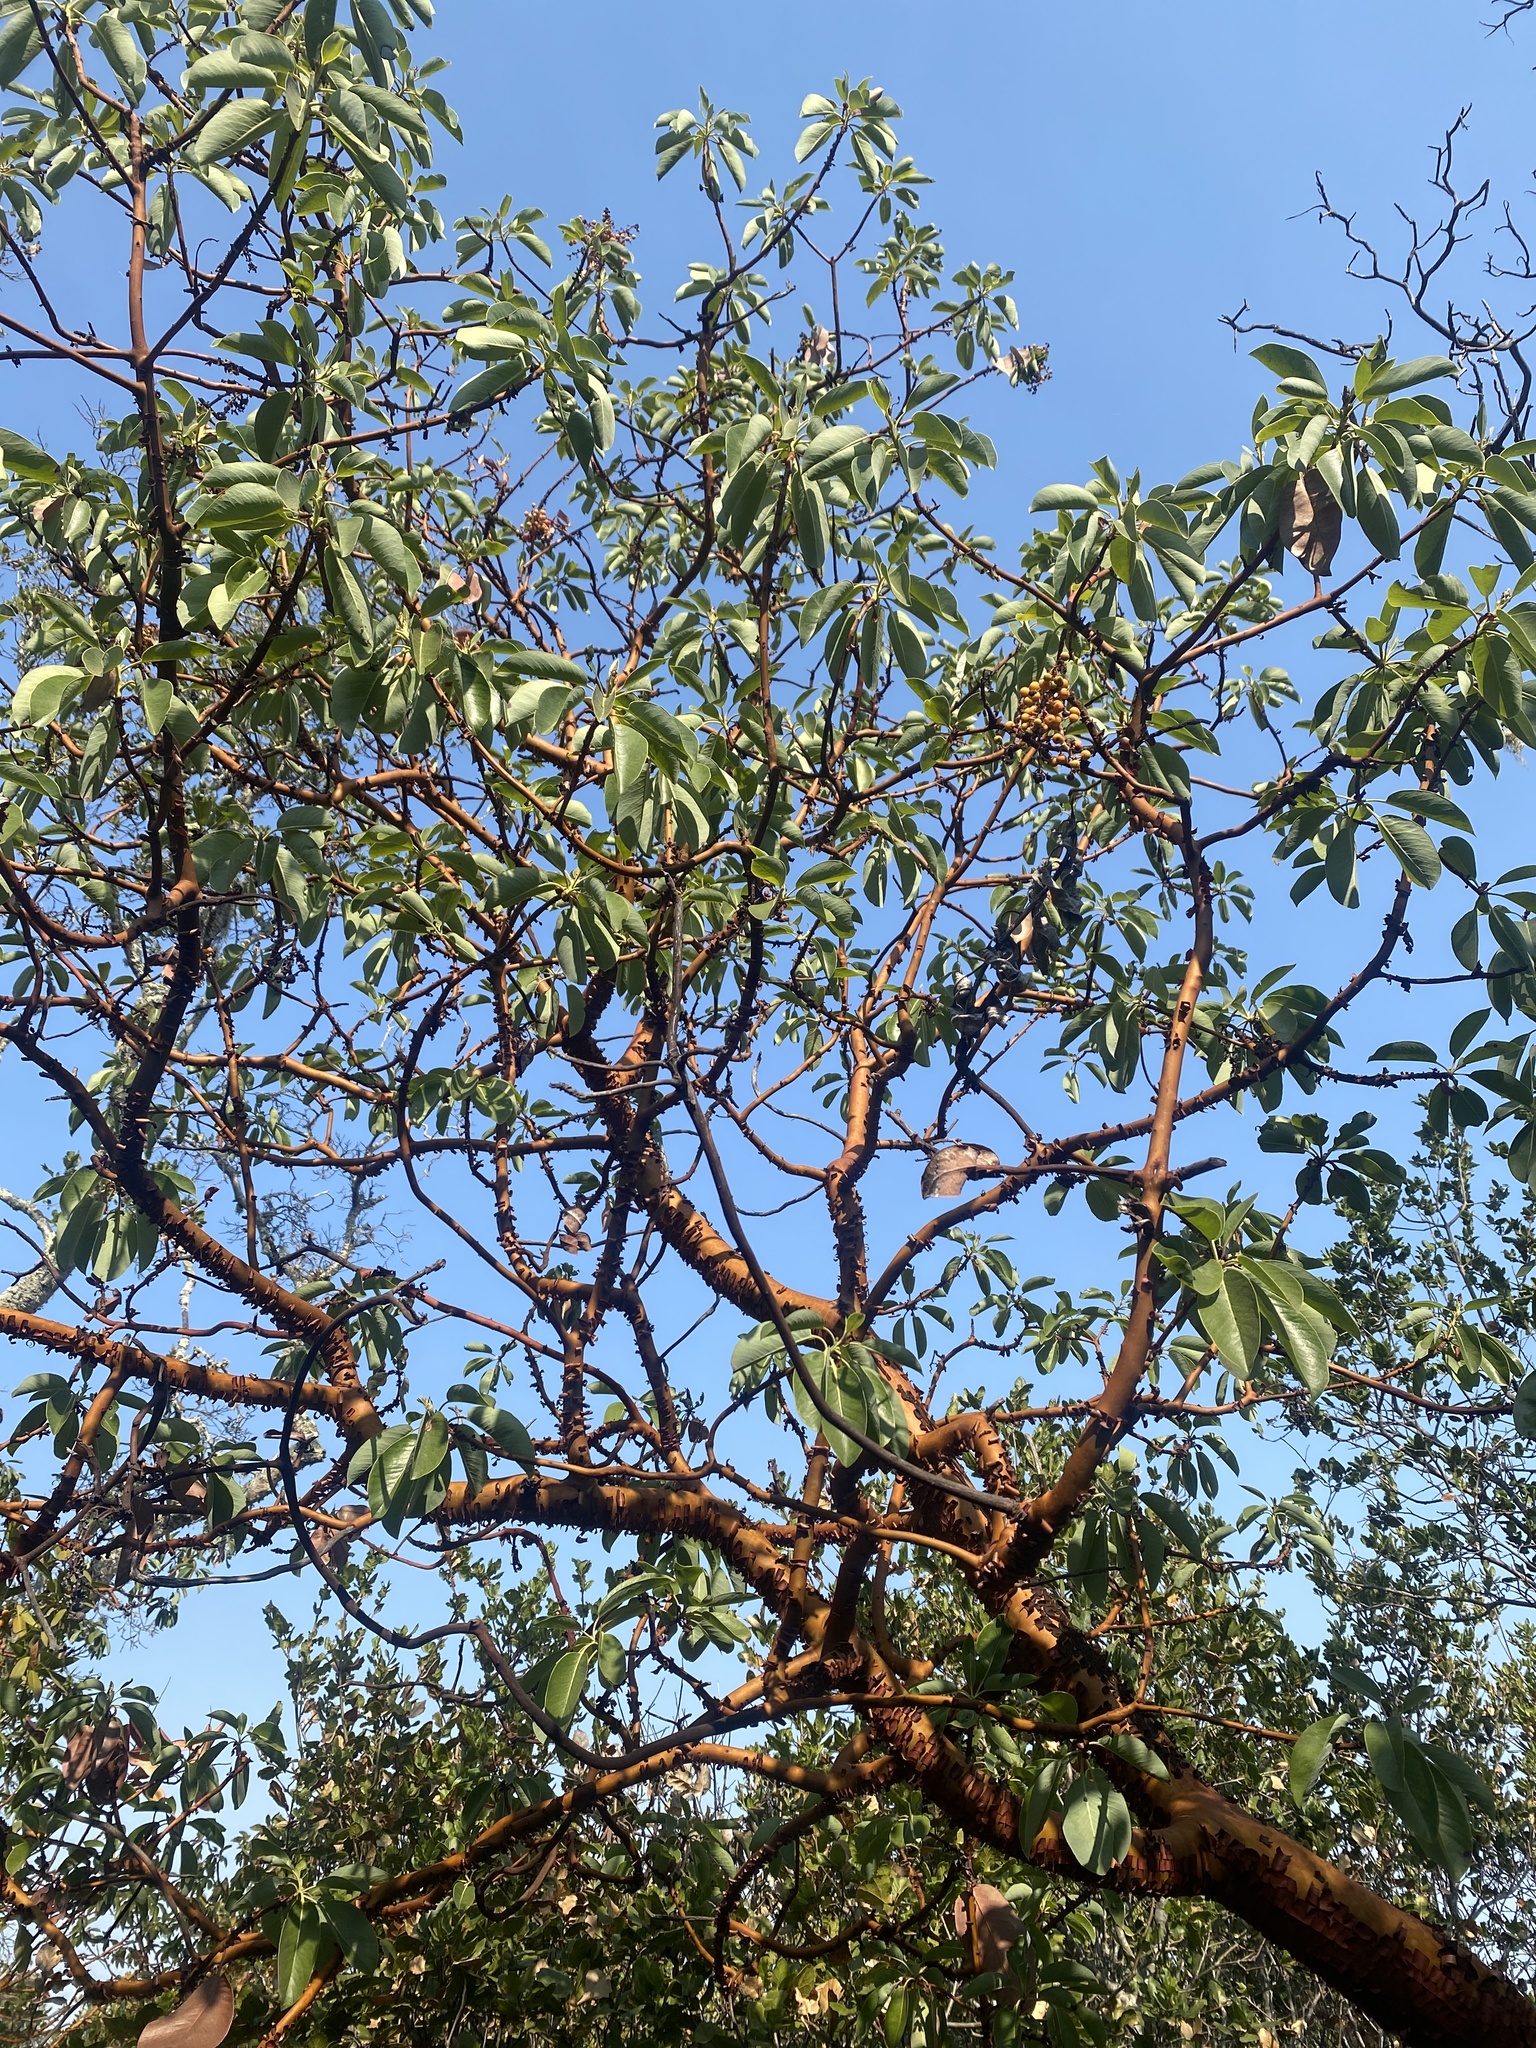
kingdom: Plantae
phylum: Tracheophyta
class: Magnoliopsida
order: Ericales
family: Ericaceae
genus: Arbutus
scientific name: Arbutus menziesii
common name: Pacific madrone
